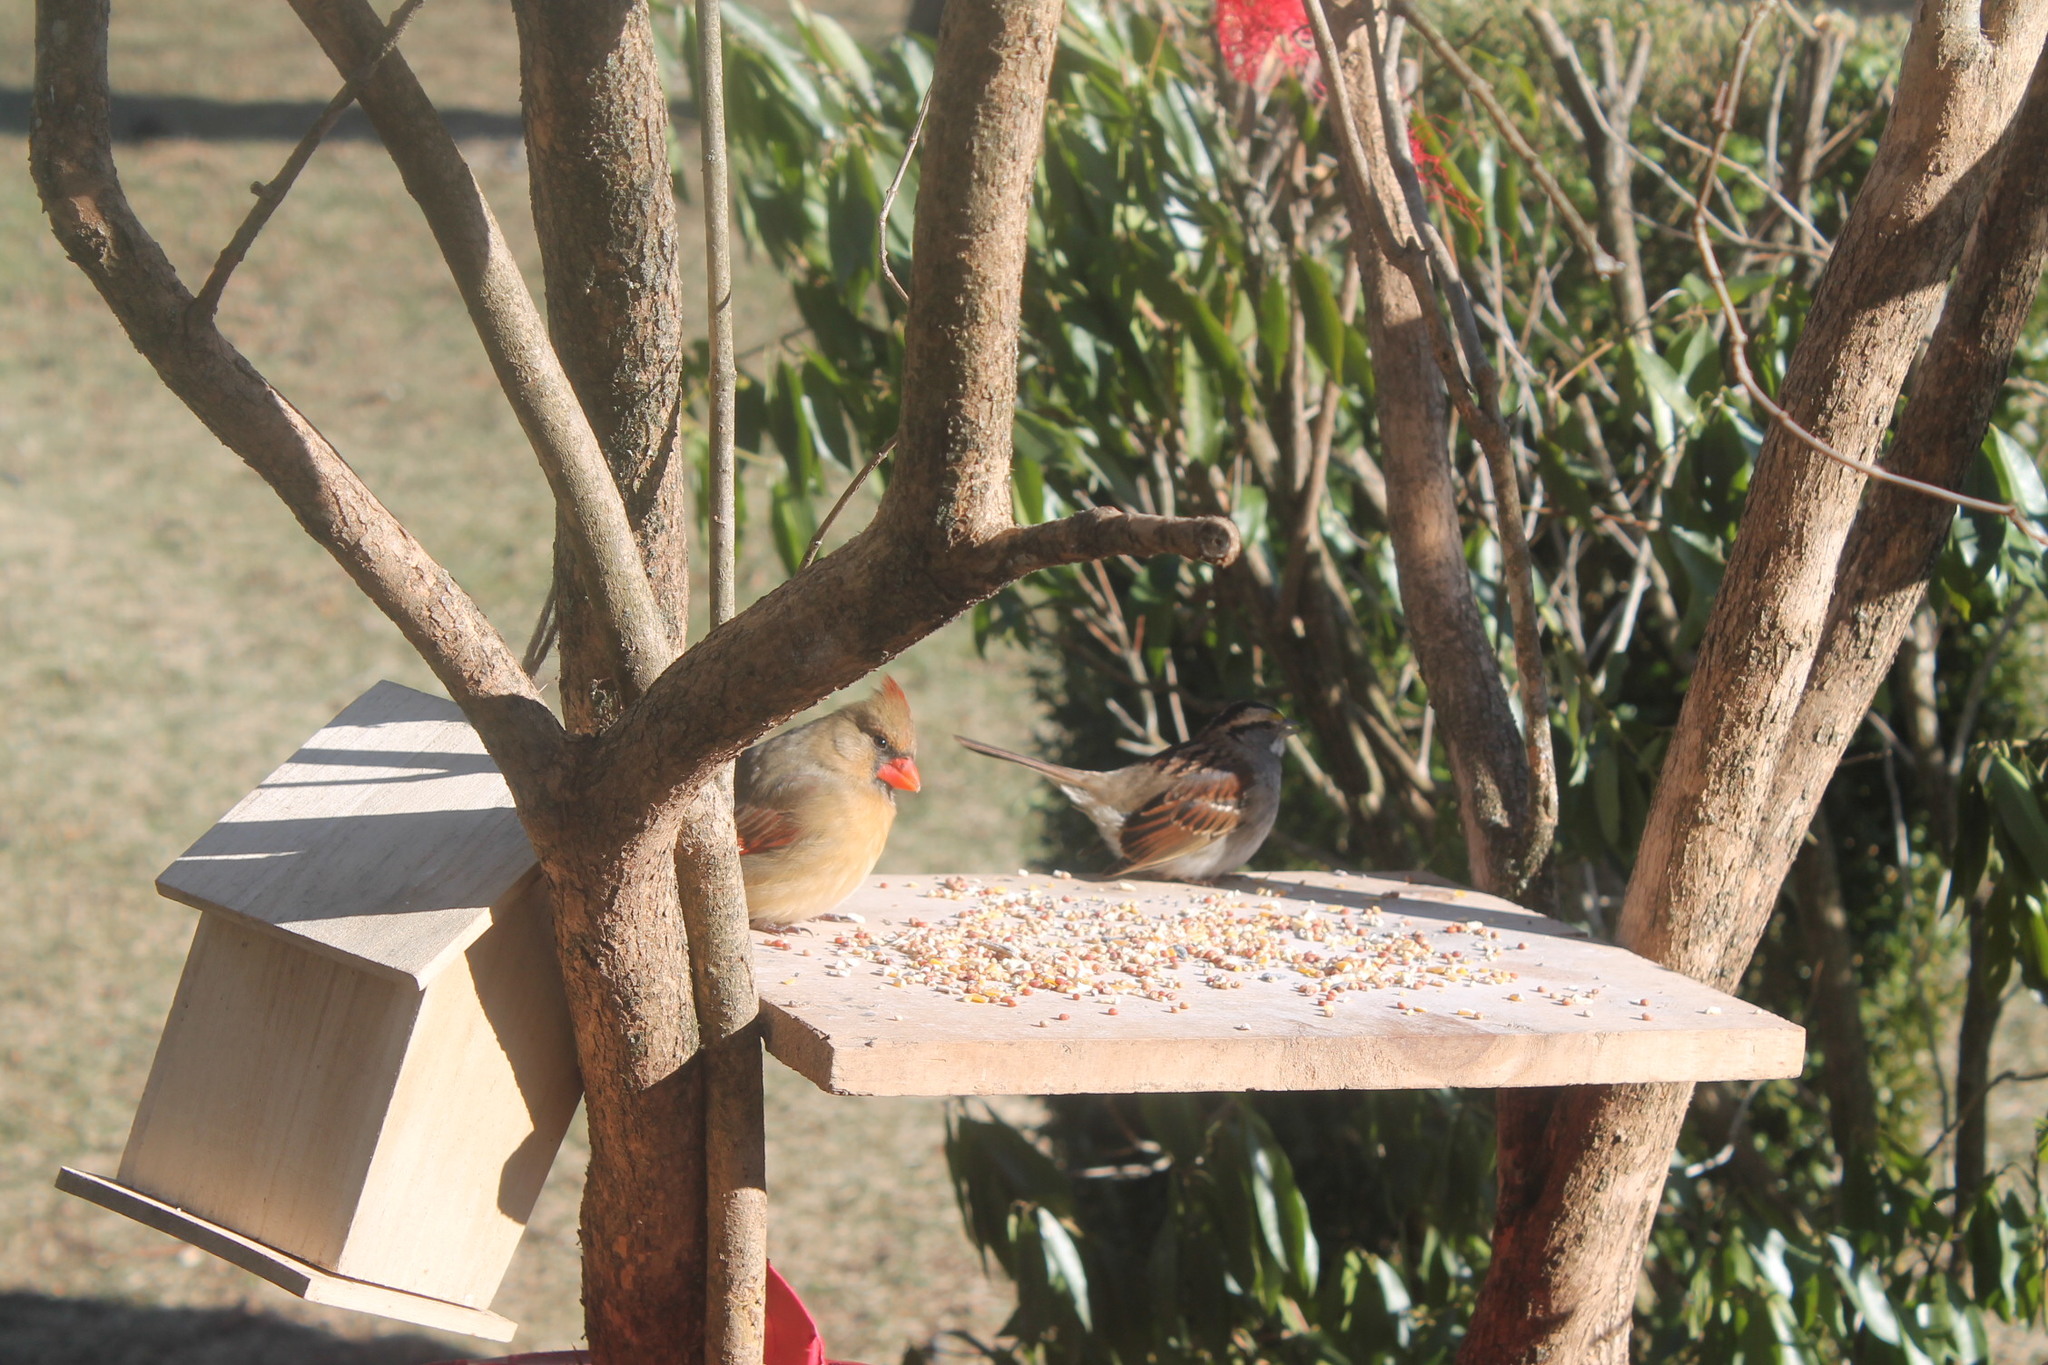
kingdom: Animalia
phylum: Chordata
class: Aves
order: Passeriformes
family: Cardinalidae
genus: Cardinalis
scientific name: Cardinalis cardinalis
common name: Northern cardinal
